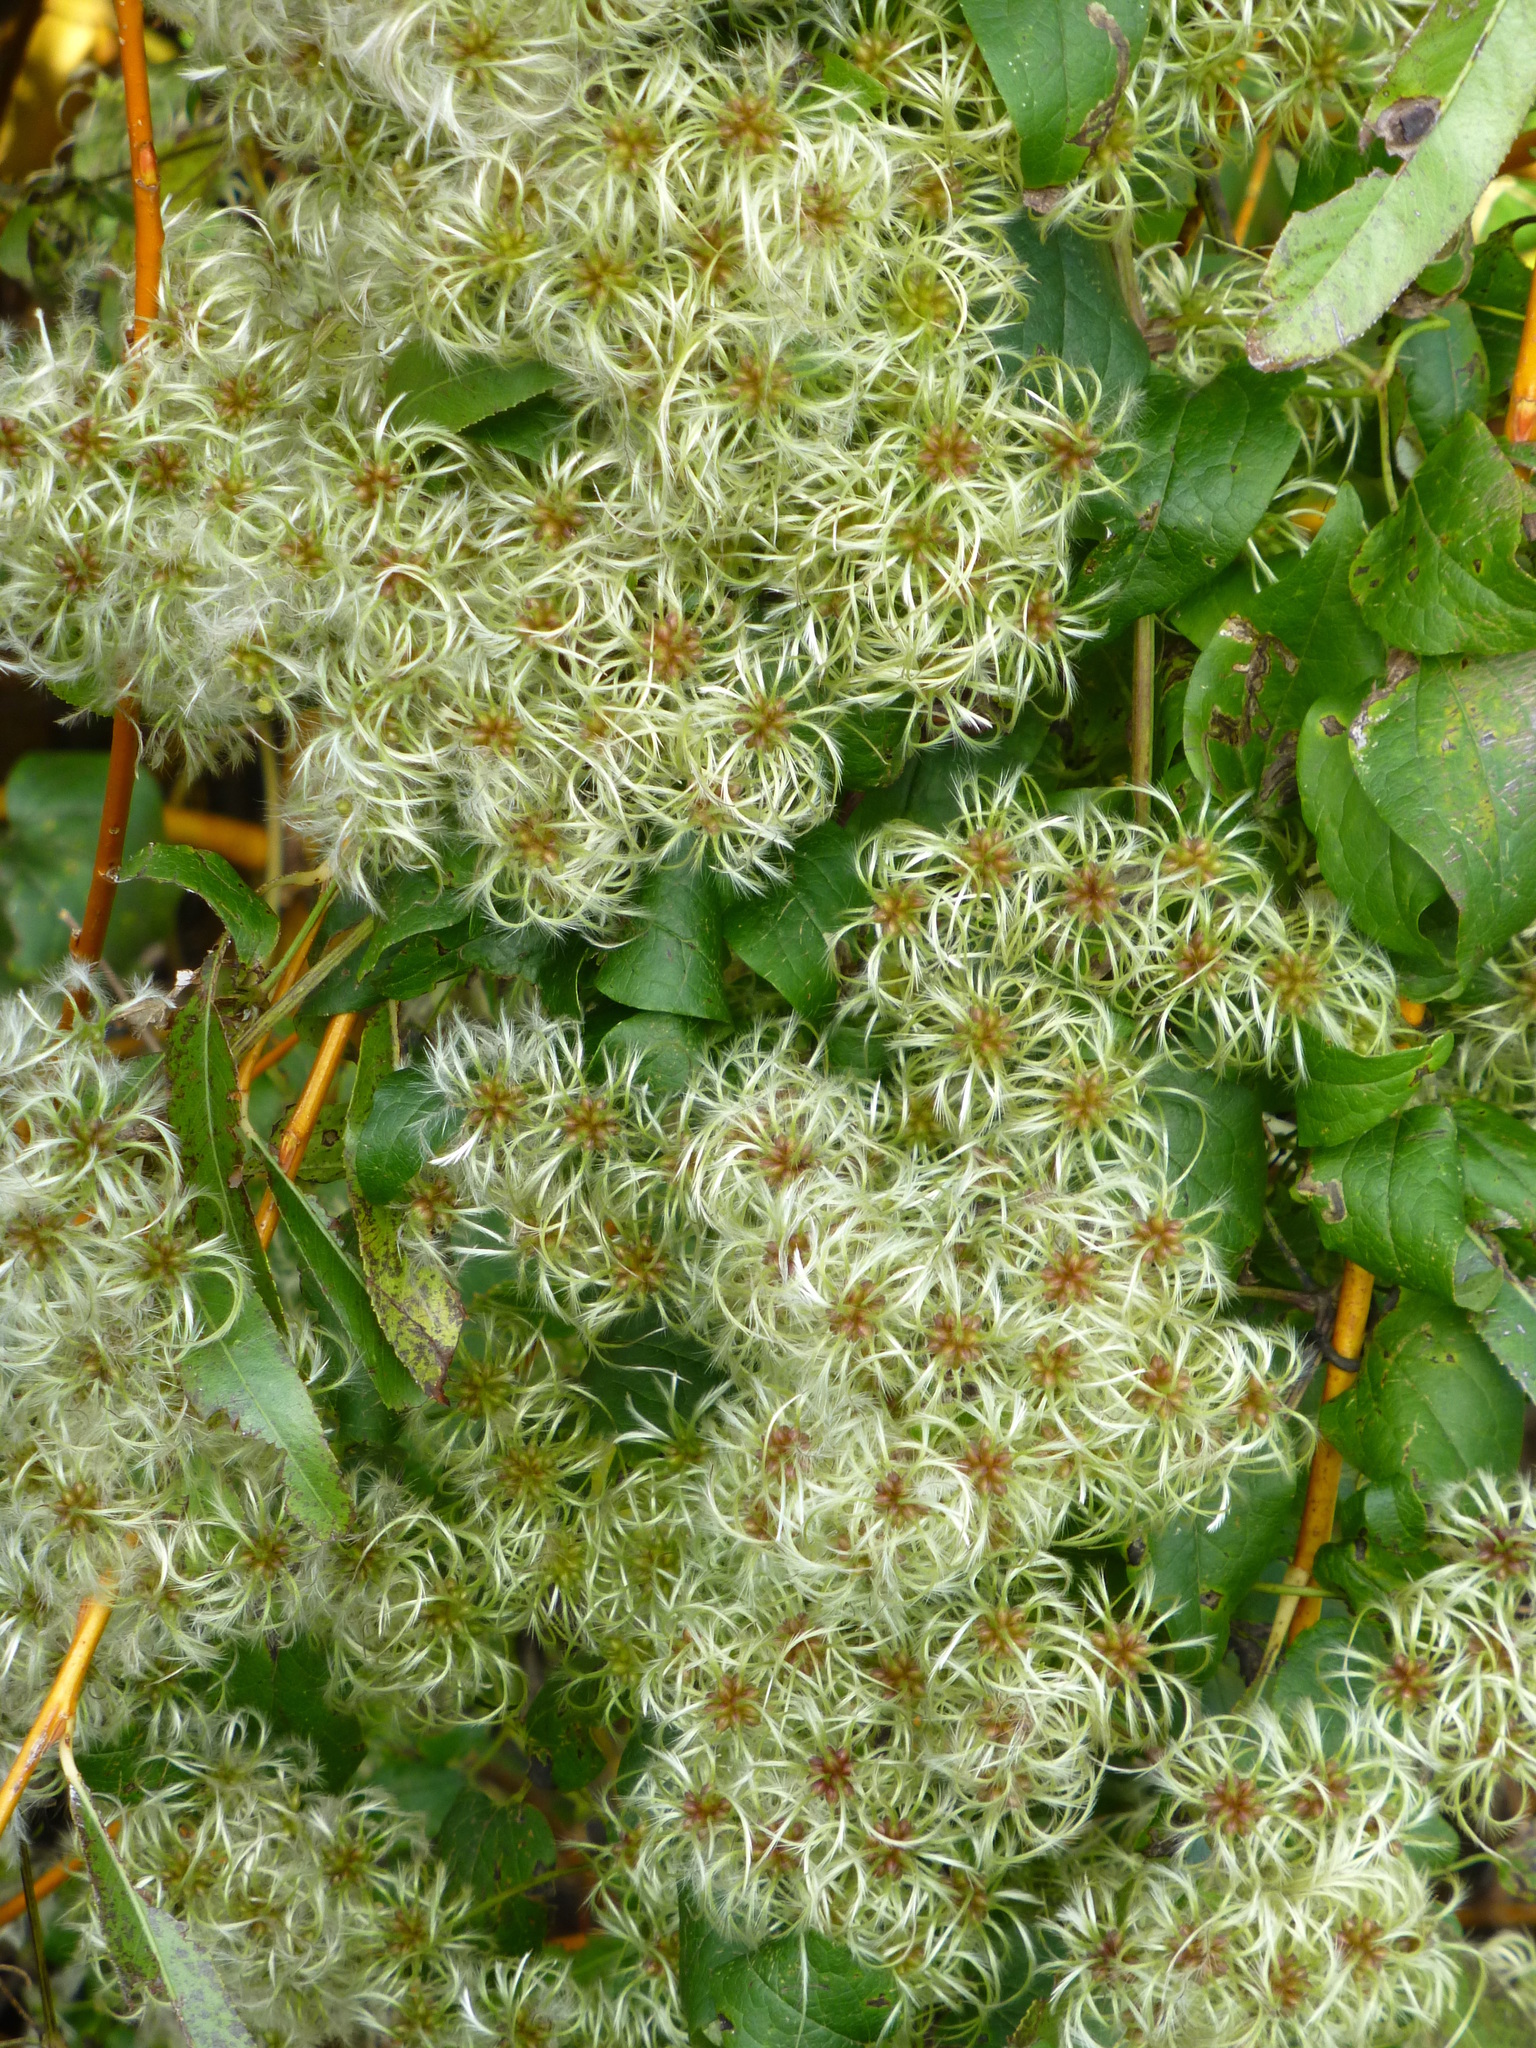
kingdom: Plantae
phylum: Tracheophyta
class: Magnoliopsida
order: Ranunculales
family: Ranunculaceae
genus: Clematis
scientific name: Clematis vitalba
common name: Evergreen clematis
